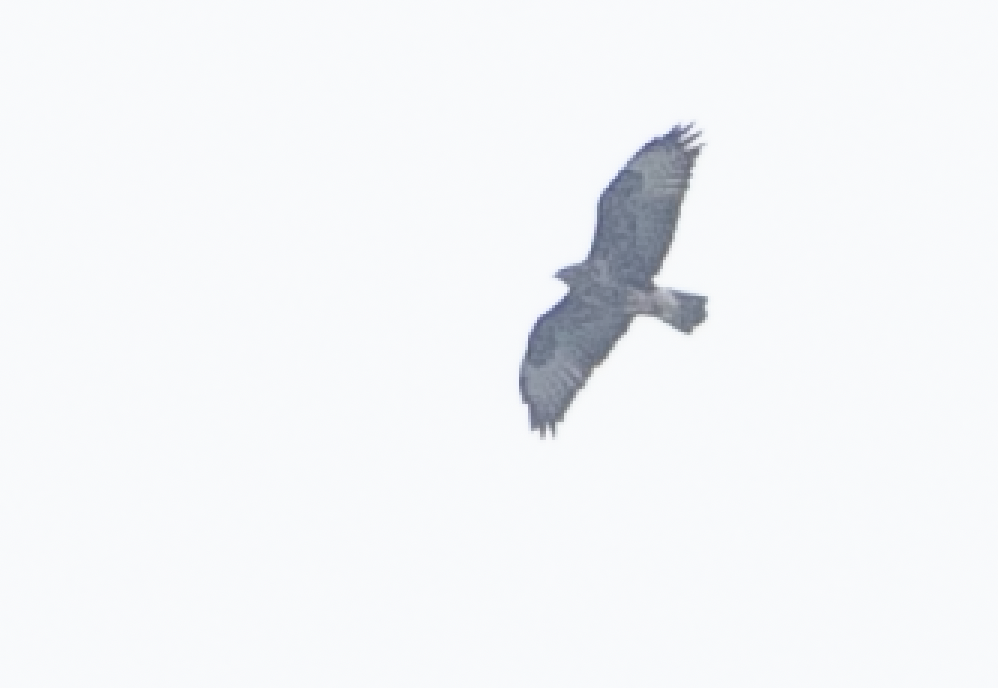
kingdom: Animalia
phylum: Chordata
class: Aves
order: Accipitriformes
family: Accipitridae
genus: Buteo
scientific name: Buteo buteo
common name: Common buzzard
